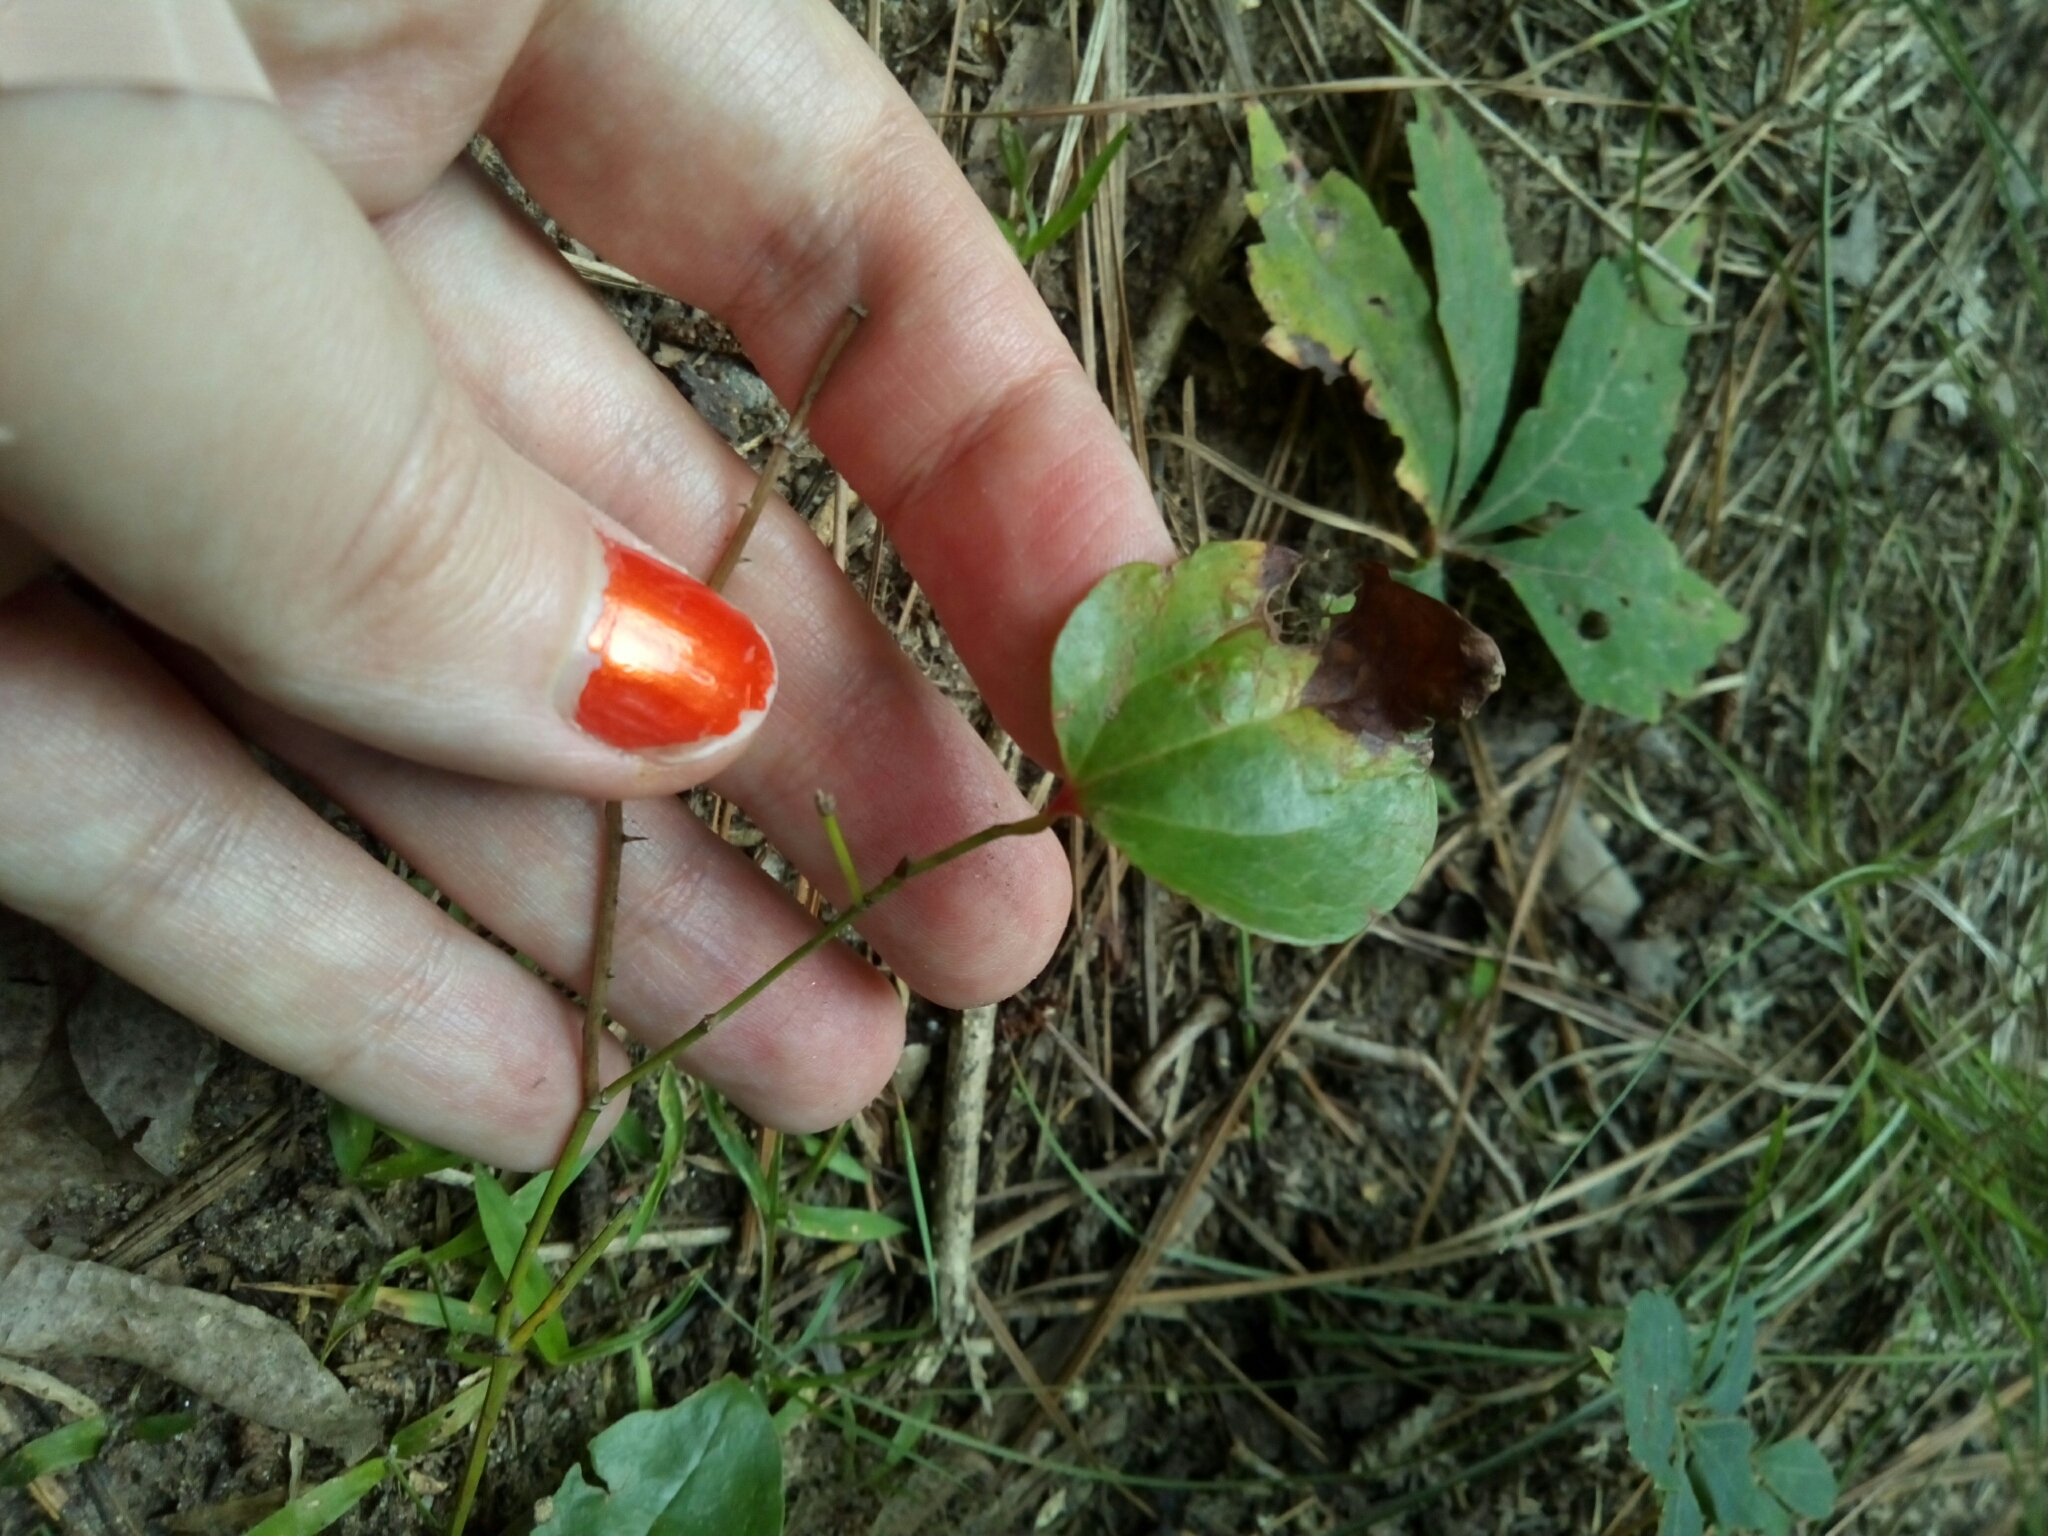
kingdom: Plantae
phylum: Tracheophyta
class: Liliopsida
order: Liliales
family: Smilacaceae
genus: Smilax
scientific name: Smilax rotundifolia
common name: Bullbriar
